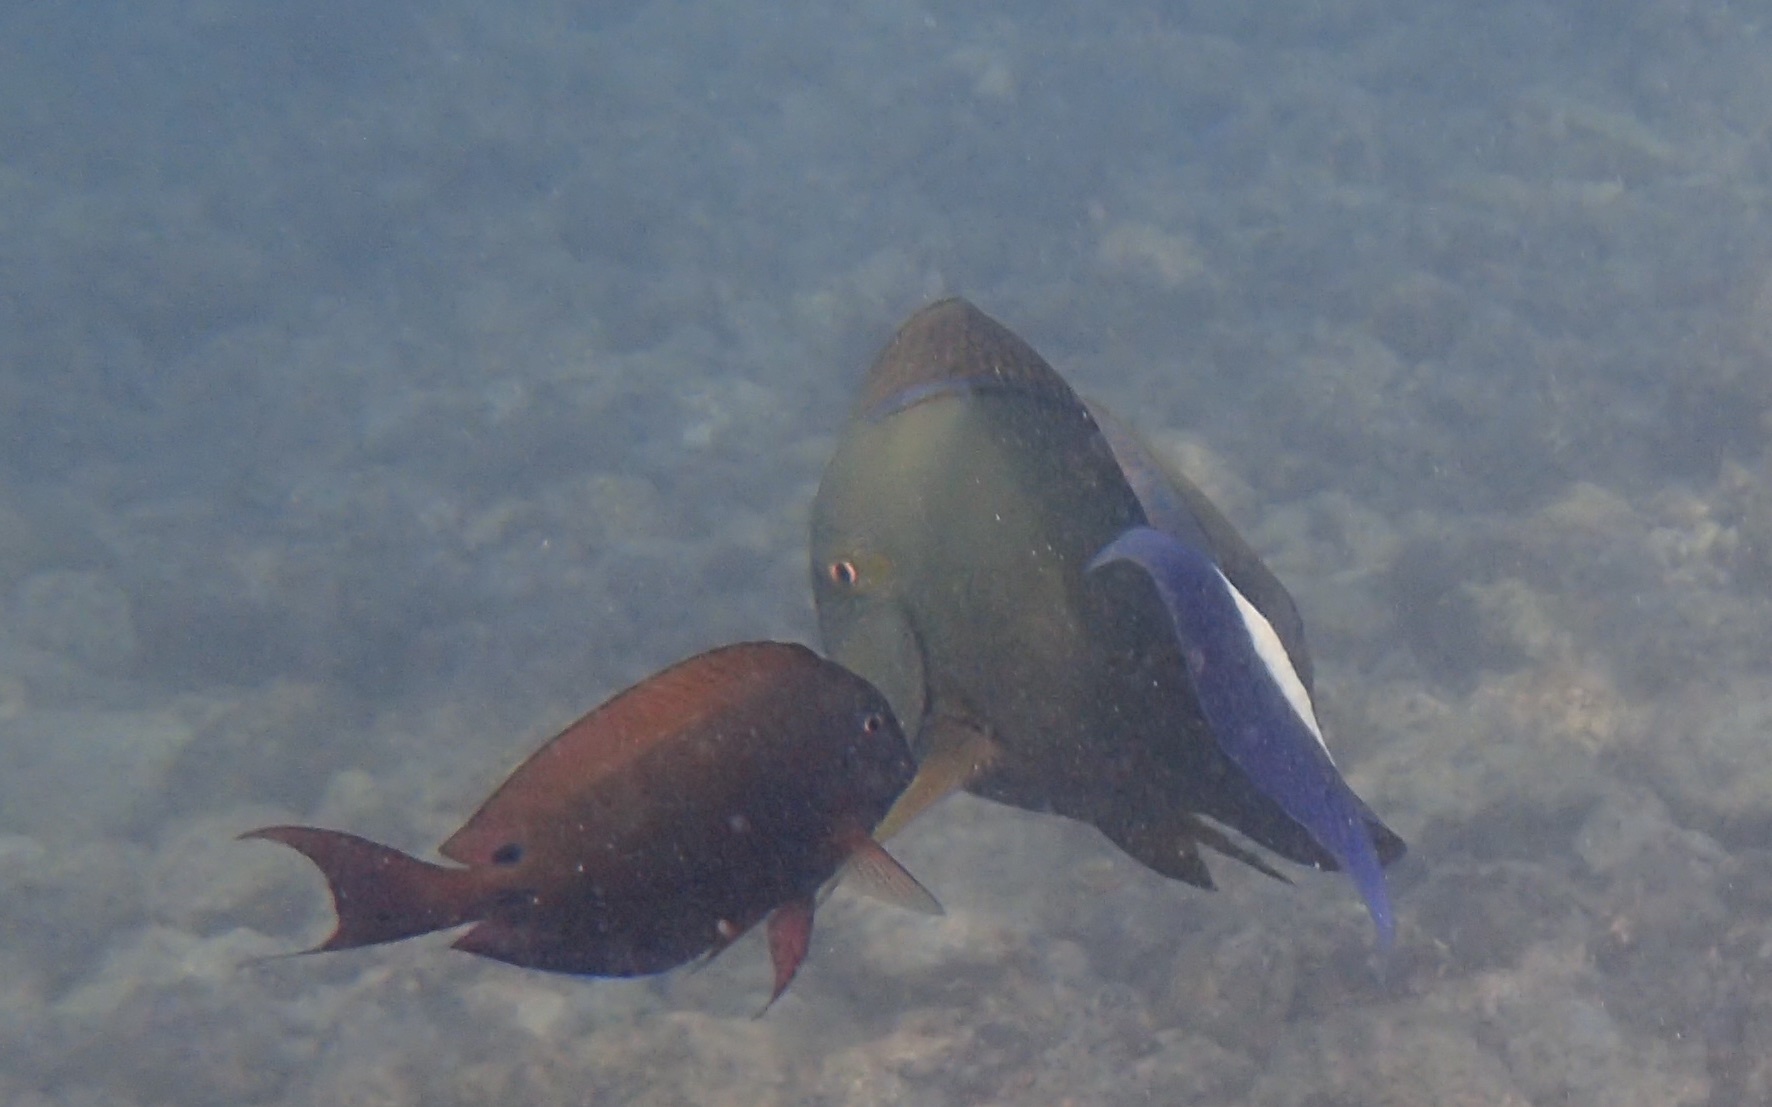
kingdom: Animalia
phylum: Chordata
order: Perciformes
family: Acanthuridae
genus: Acanthurus
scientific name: Acanthurus nigrofuscus
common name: Blackspot surgeonfish
